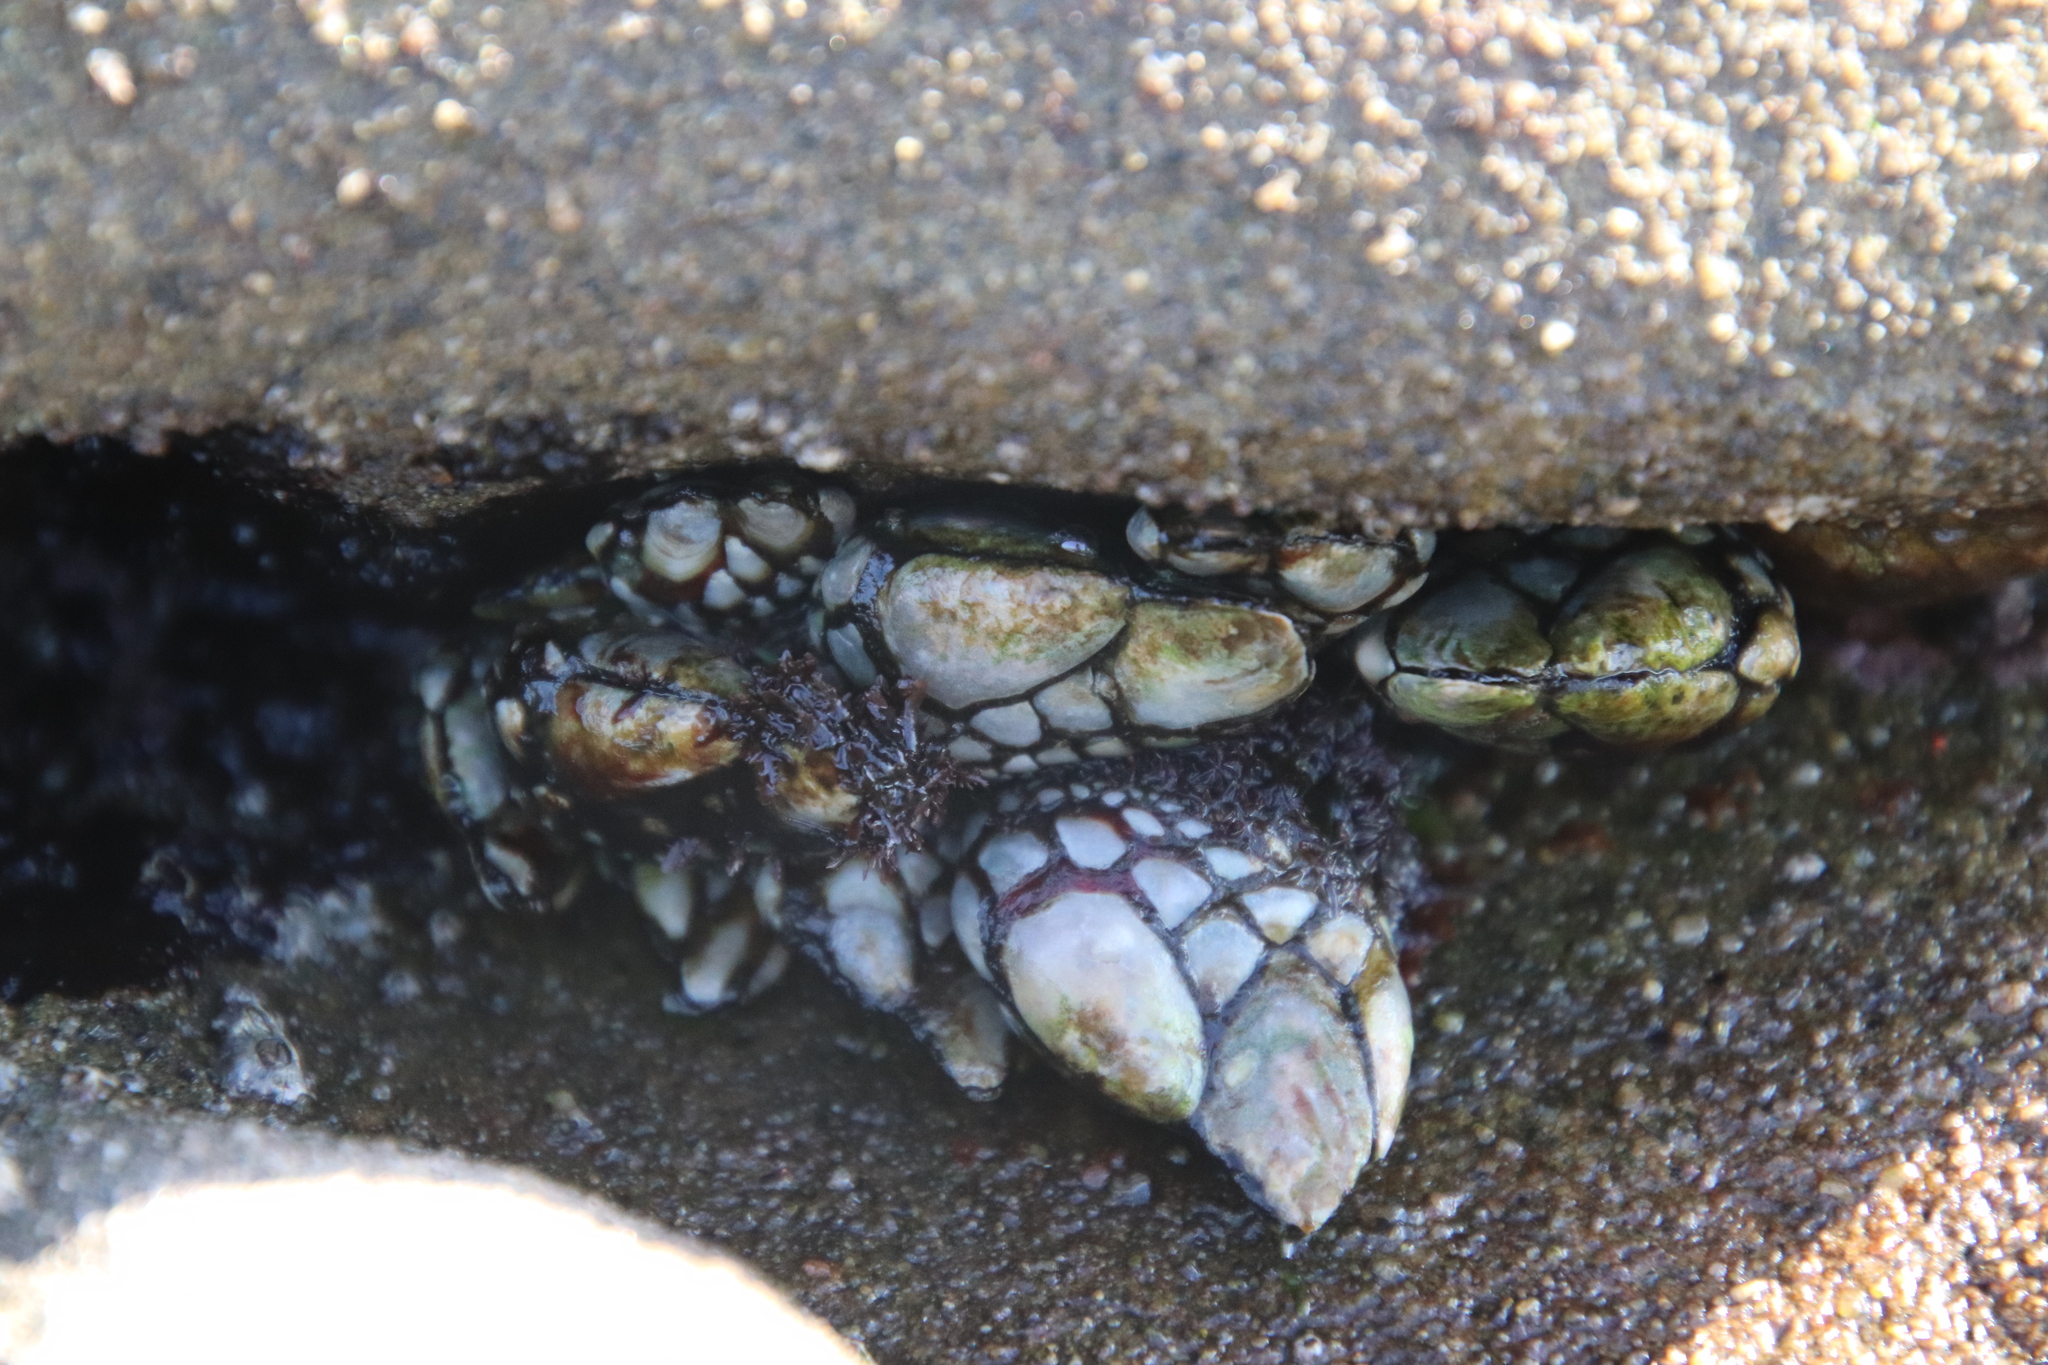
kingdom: Animalia
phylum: Arthropoda
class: Maxillopoda
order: Pedunculata
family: Pollicipedidae
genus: Pollicipes
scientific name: Pollicipes polymerus
